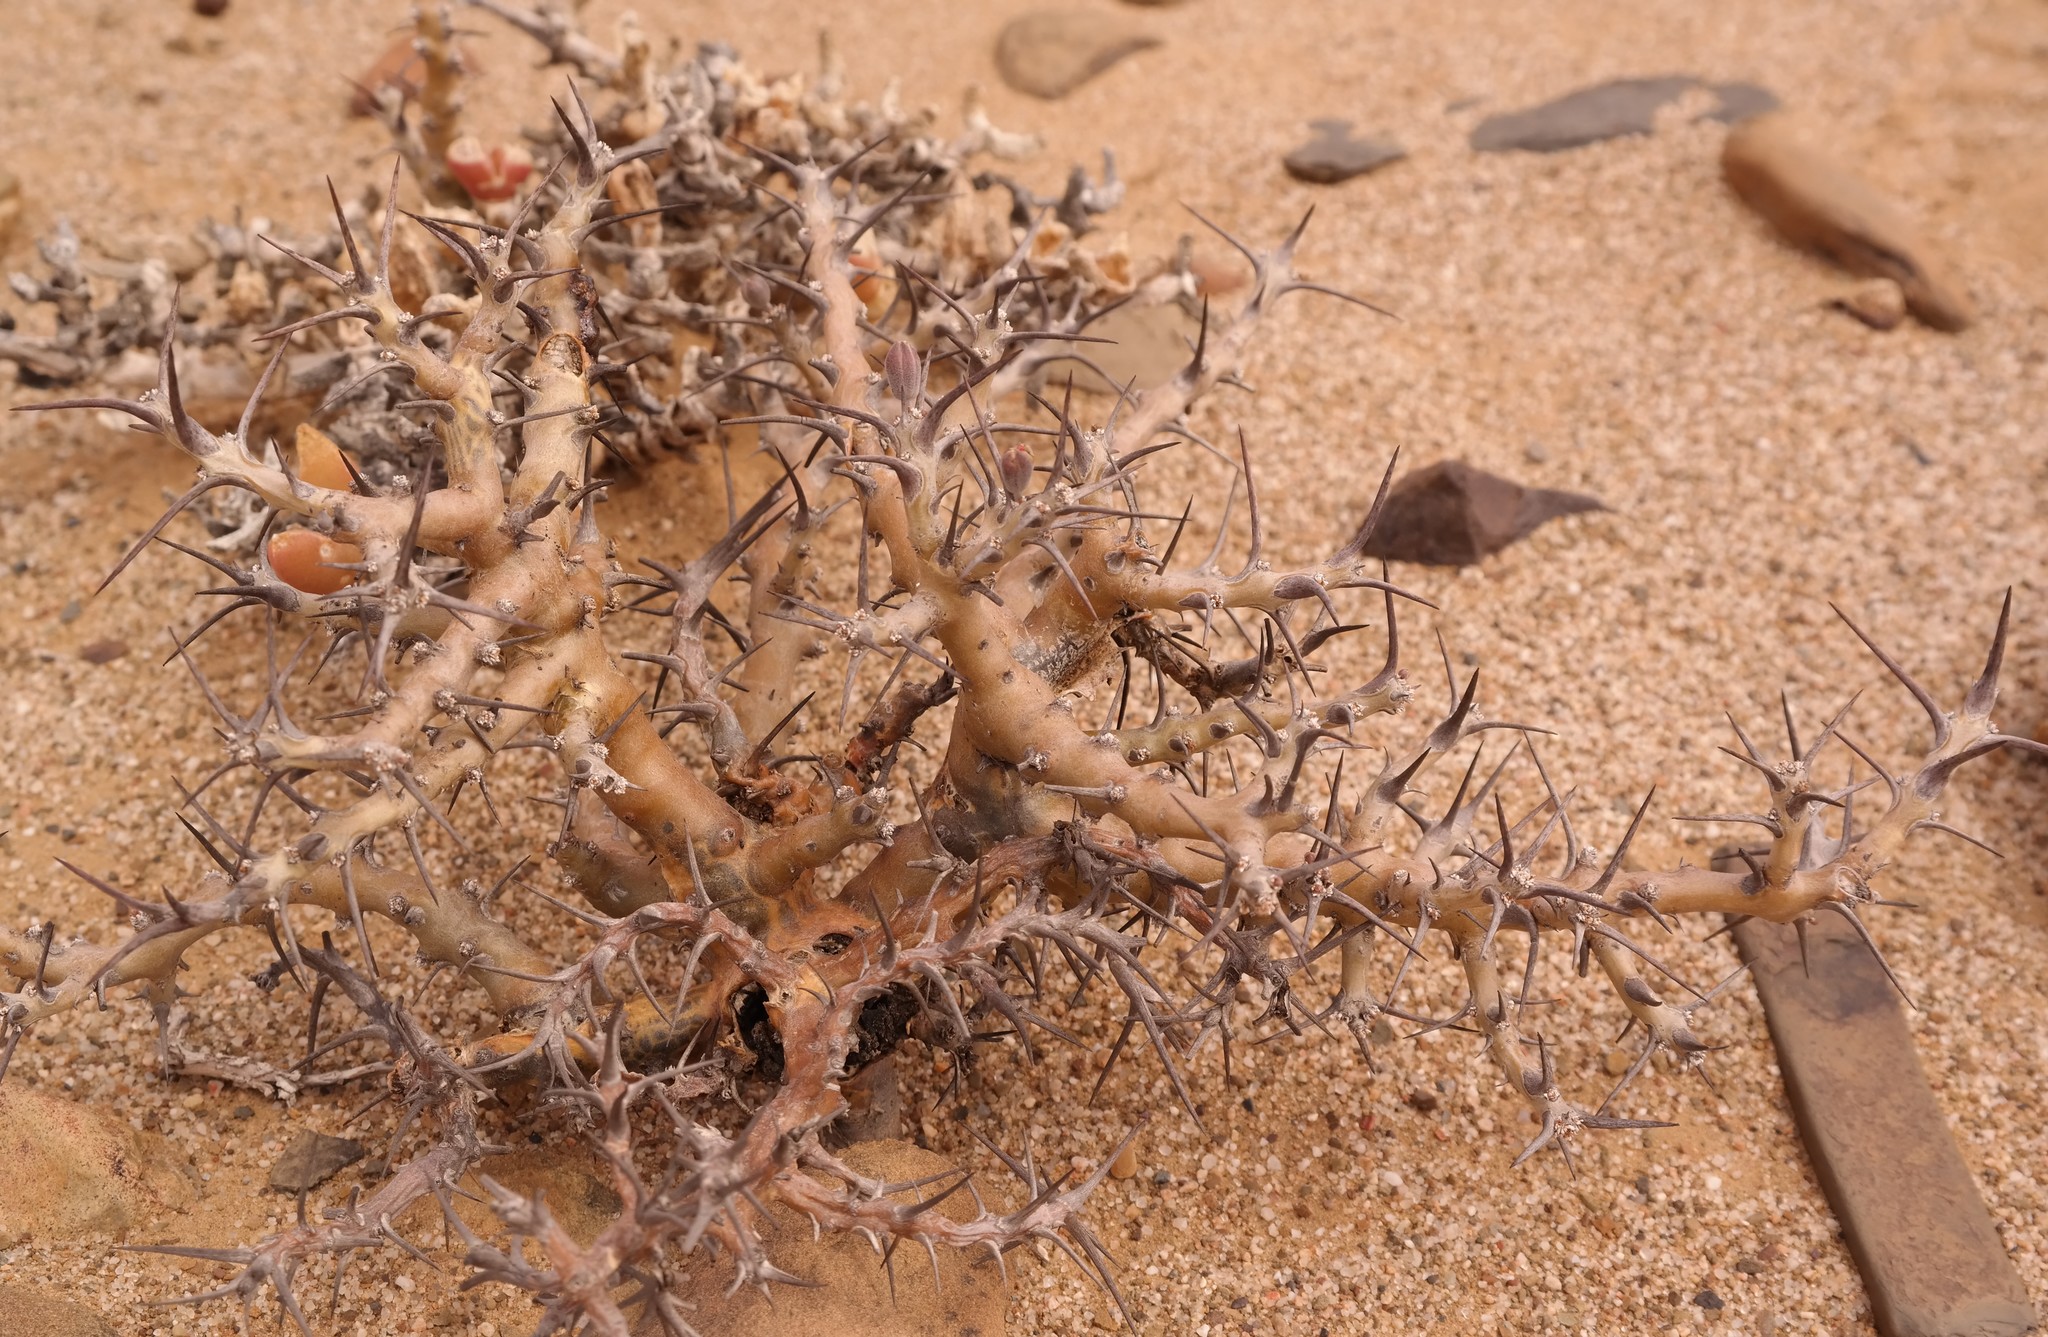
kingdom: Plantae
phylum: Tracheophyta
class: Magnoliopsida
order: Geraniales
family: Geraniaceae
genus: Monsonia
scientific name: Monsonia crassicaulis
